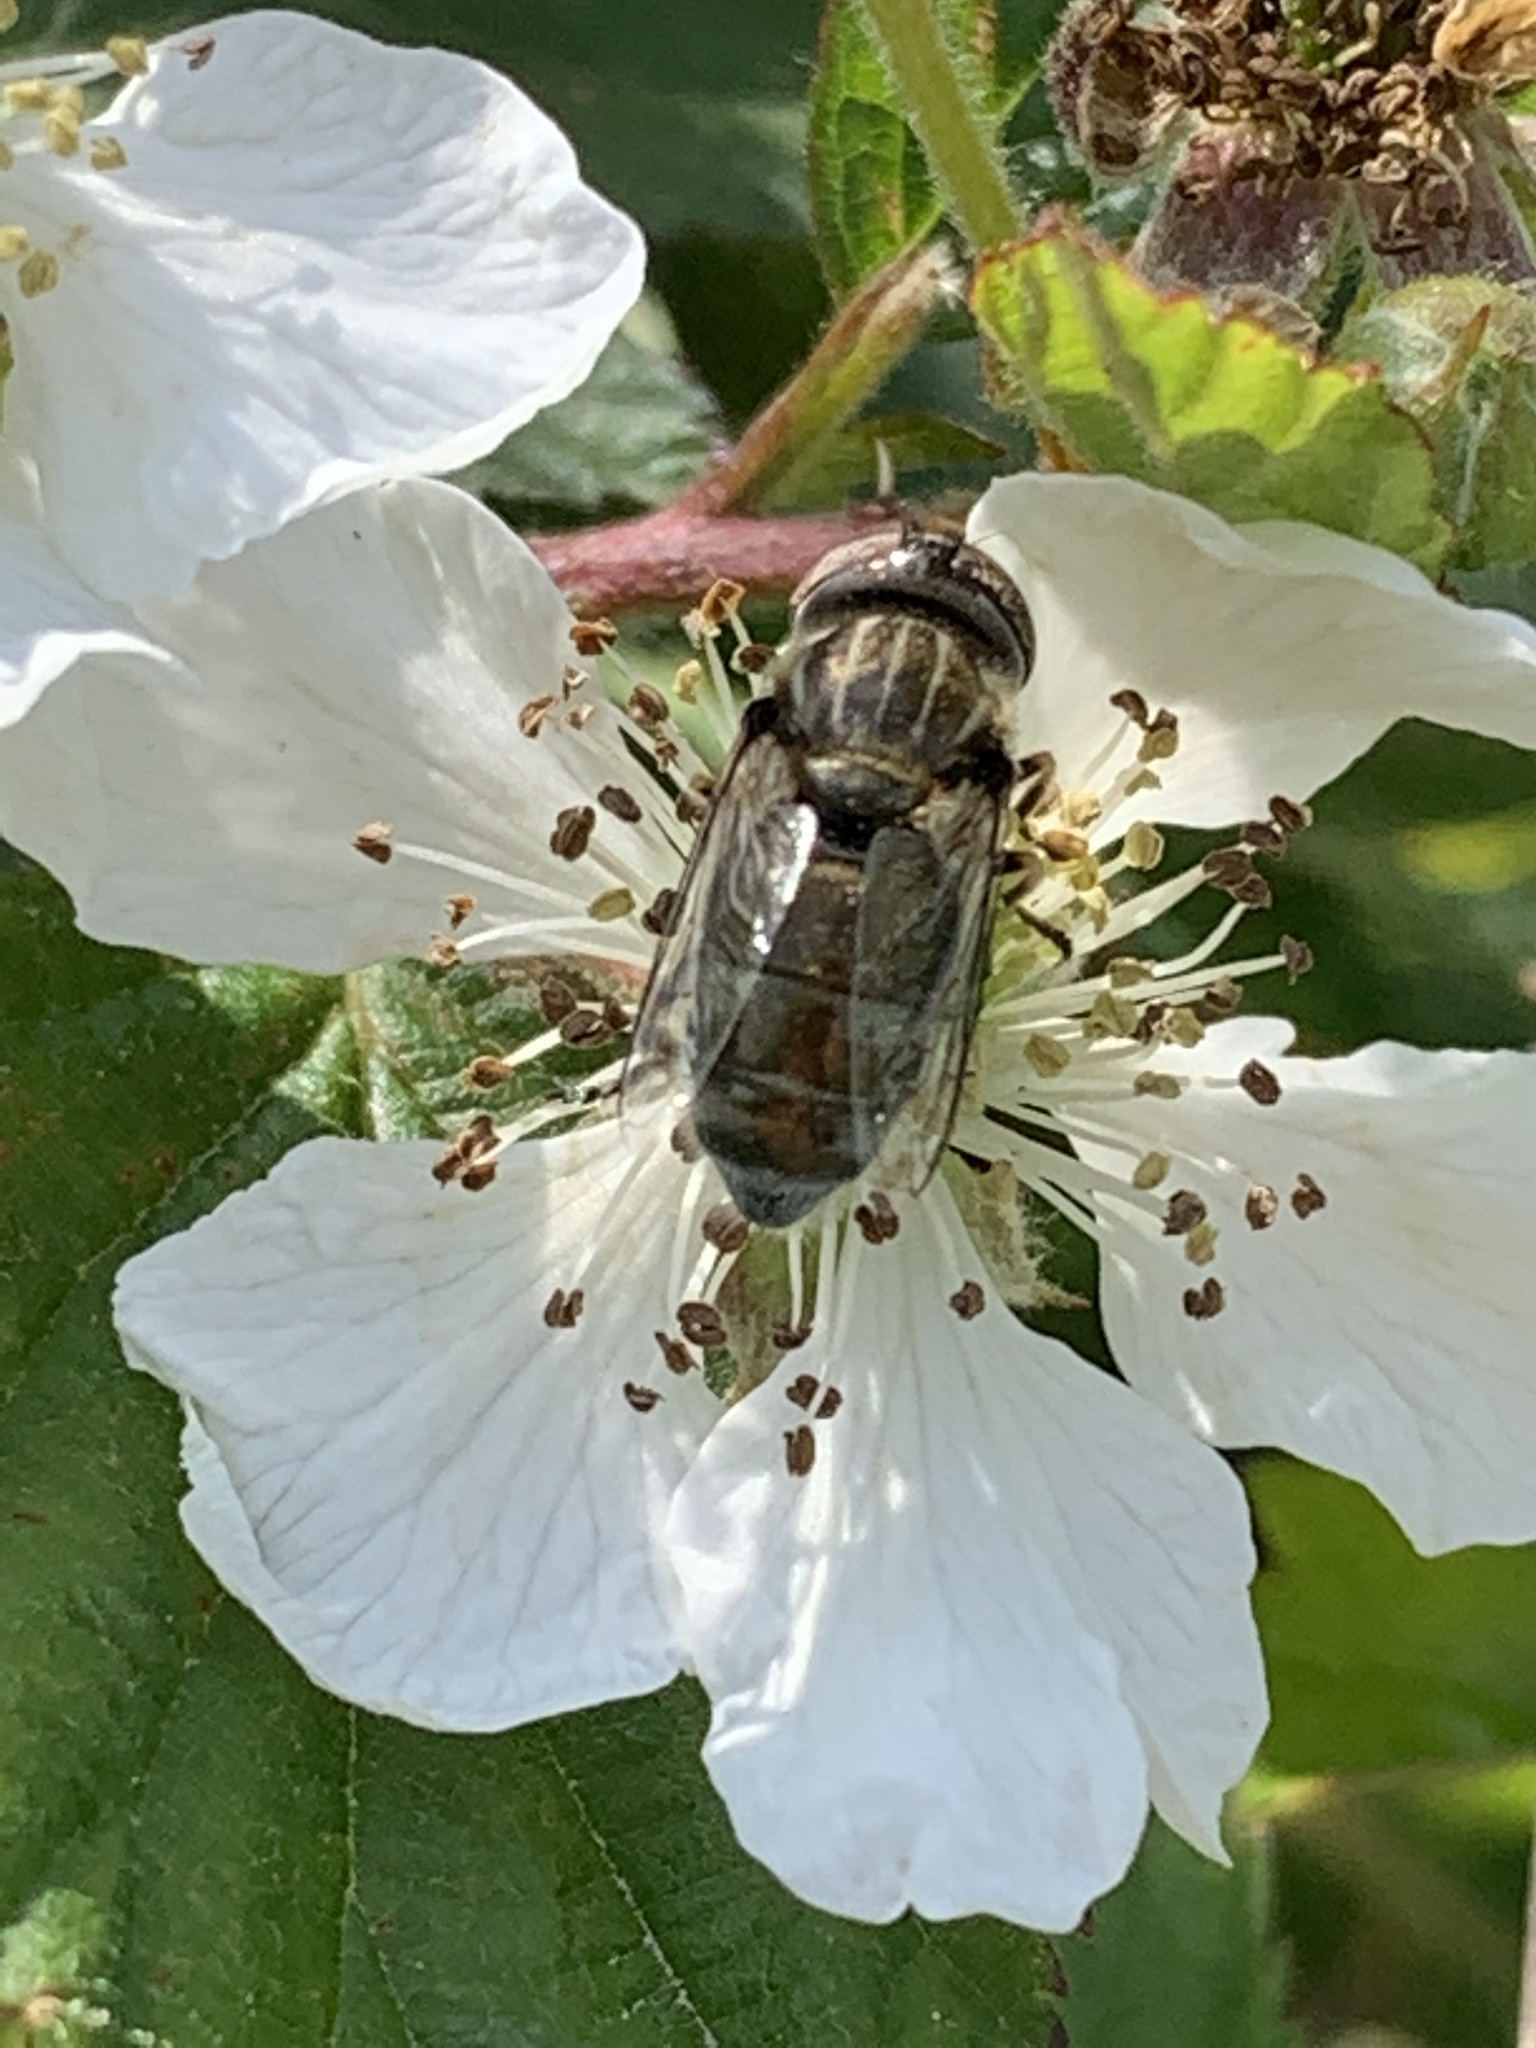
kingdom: Animalia
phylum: Arthropoda
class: Insecta
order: Diptera
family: Syrphidae
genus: Eristalinus
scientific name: Eristalinus aeneus
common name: Syrphid fly
